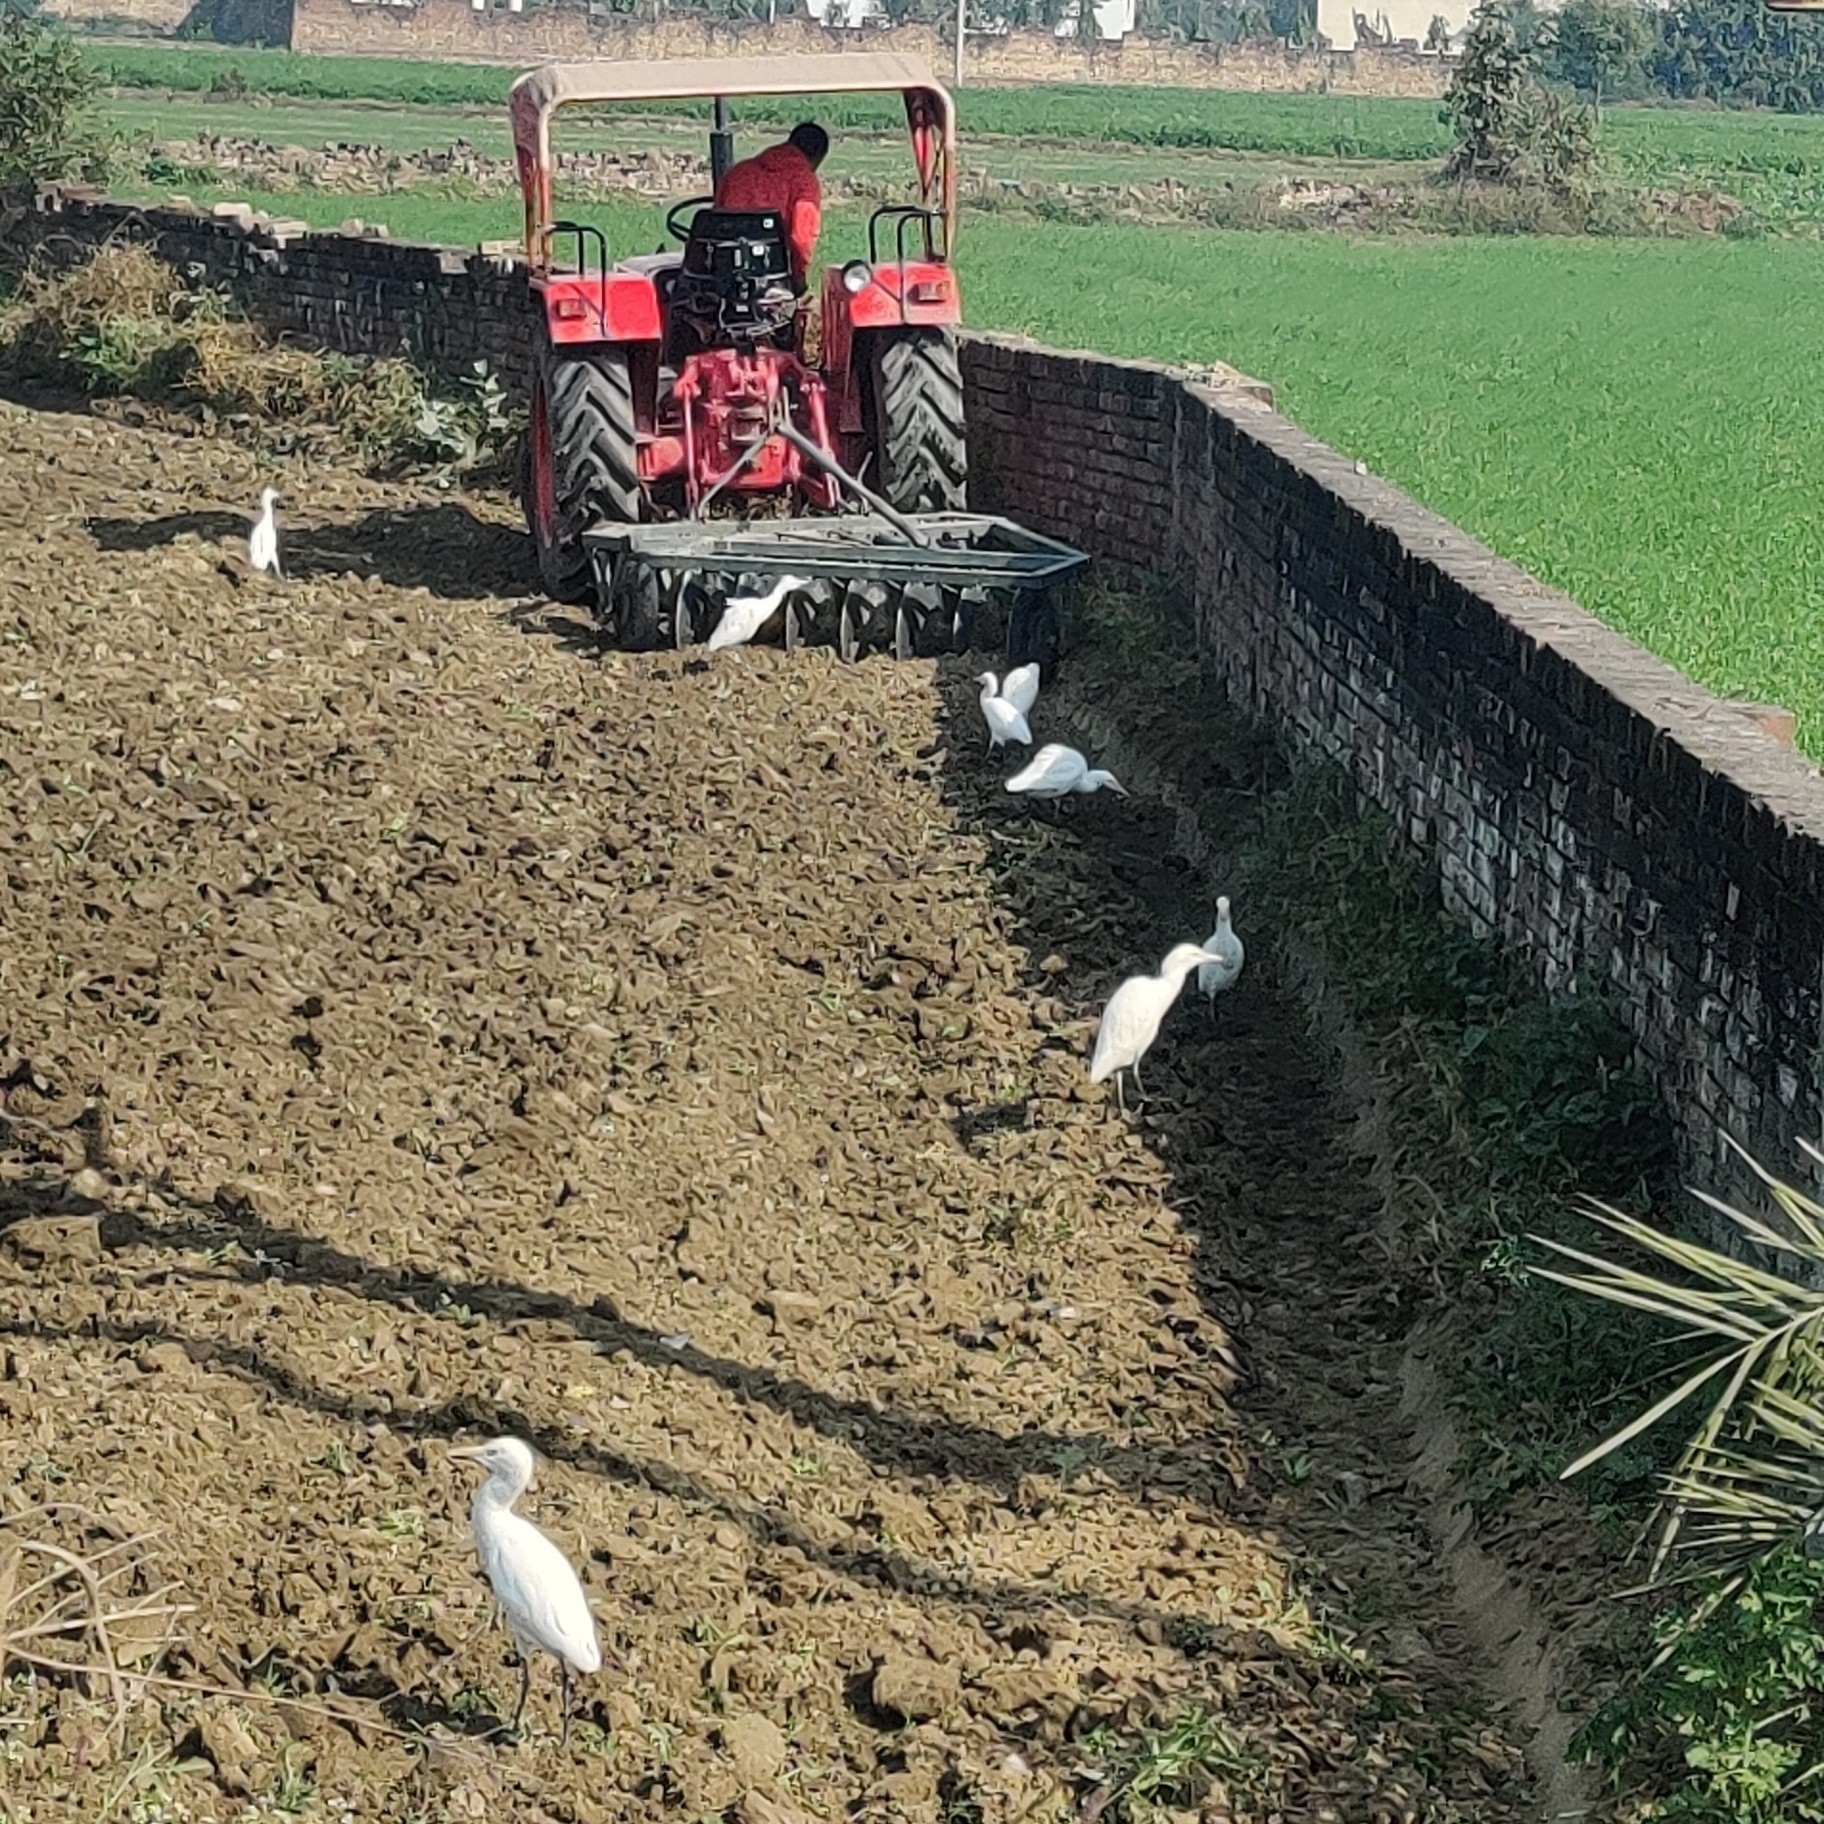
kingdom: Animalia
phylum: Chordata
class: Aves
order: Pelecaniformes
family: Ardeidae
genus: Bubulcus
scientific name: Bubulcus coromandus
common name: Eastern cattle egret
